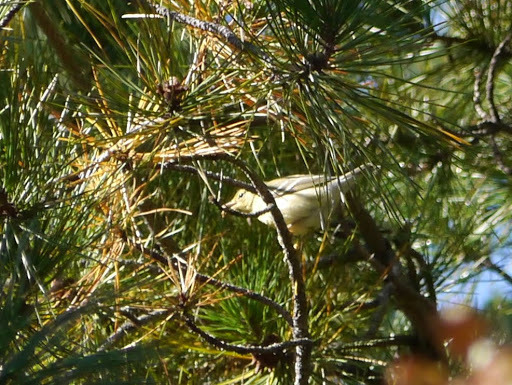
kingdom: Animalia
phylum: Chordata
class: Aves
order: Passeriformes
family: Parulidae
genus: Setophaga
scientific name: Setophaga pinus
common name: Pine warbler
